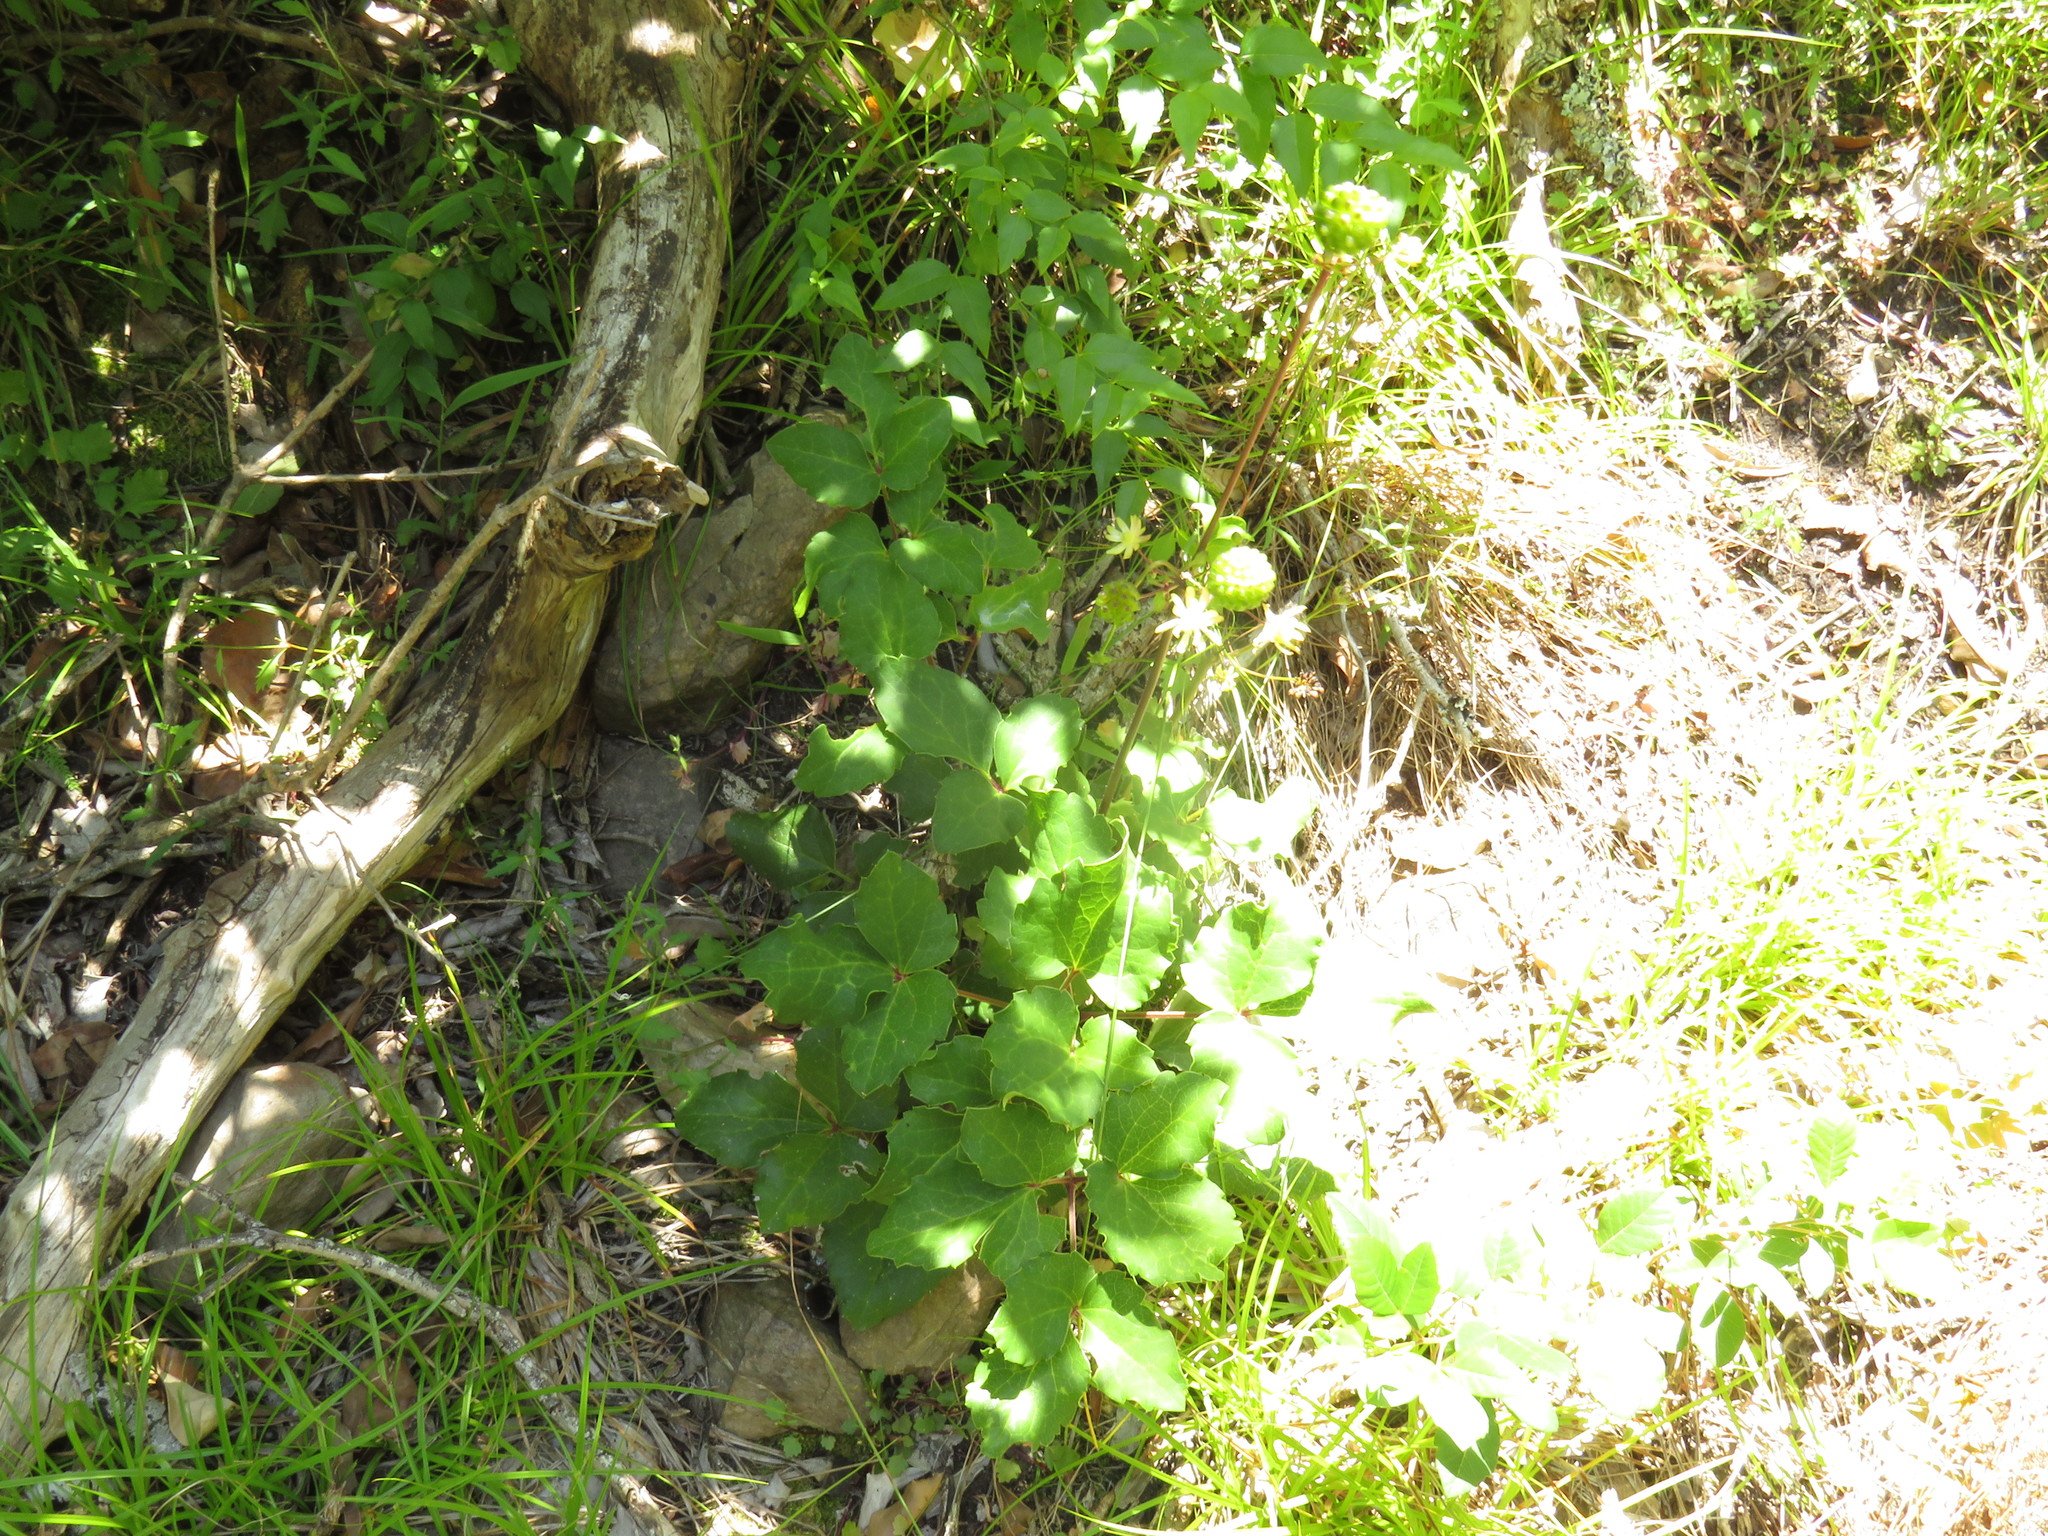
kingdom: Plantae
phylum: Tracheophyta
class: Magnoliopsida
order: Ranunculales
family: Ranunculaceae
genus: Knowltonia
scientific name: Knowltonia vesicatoria
